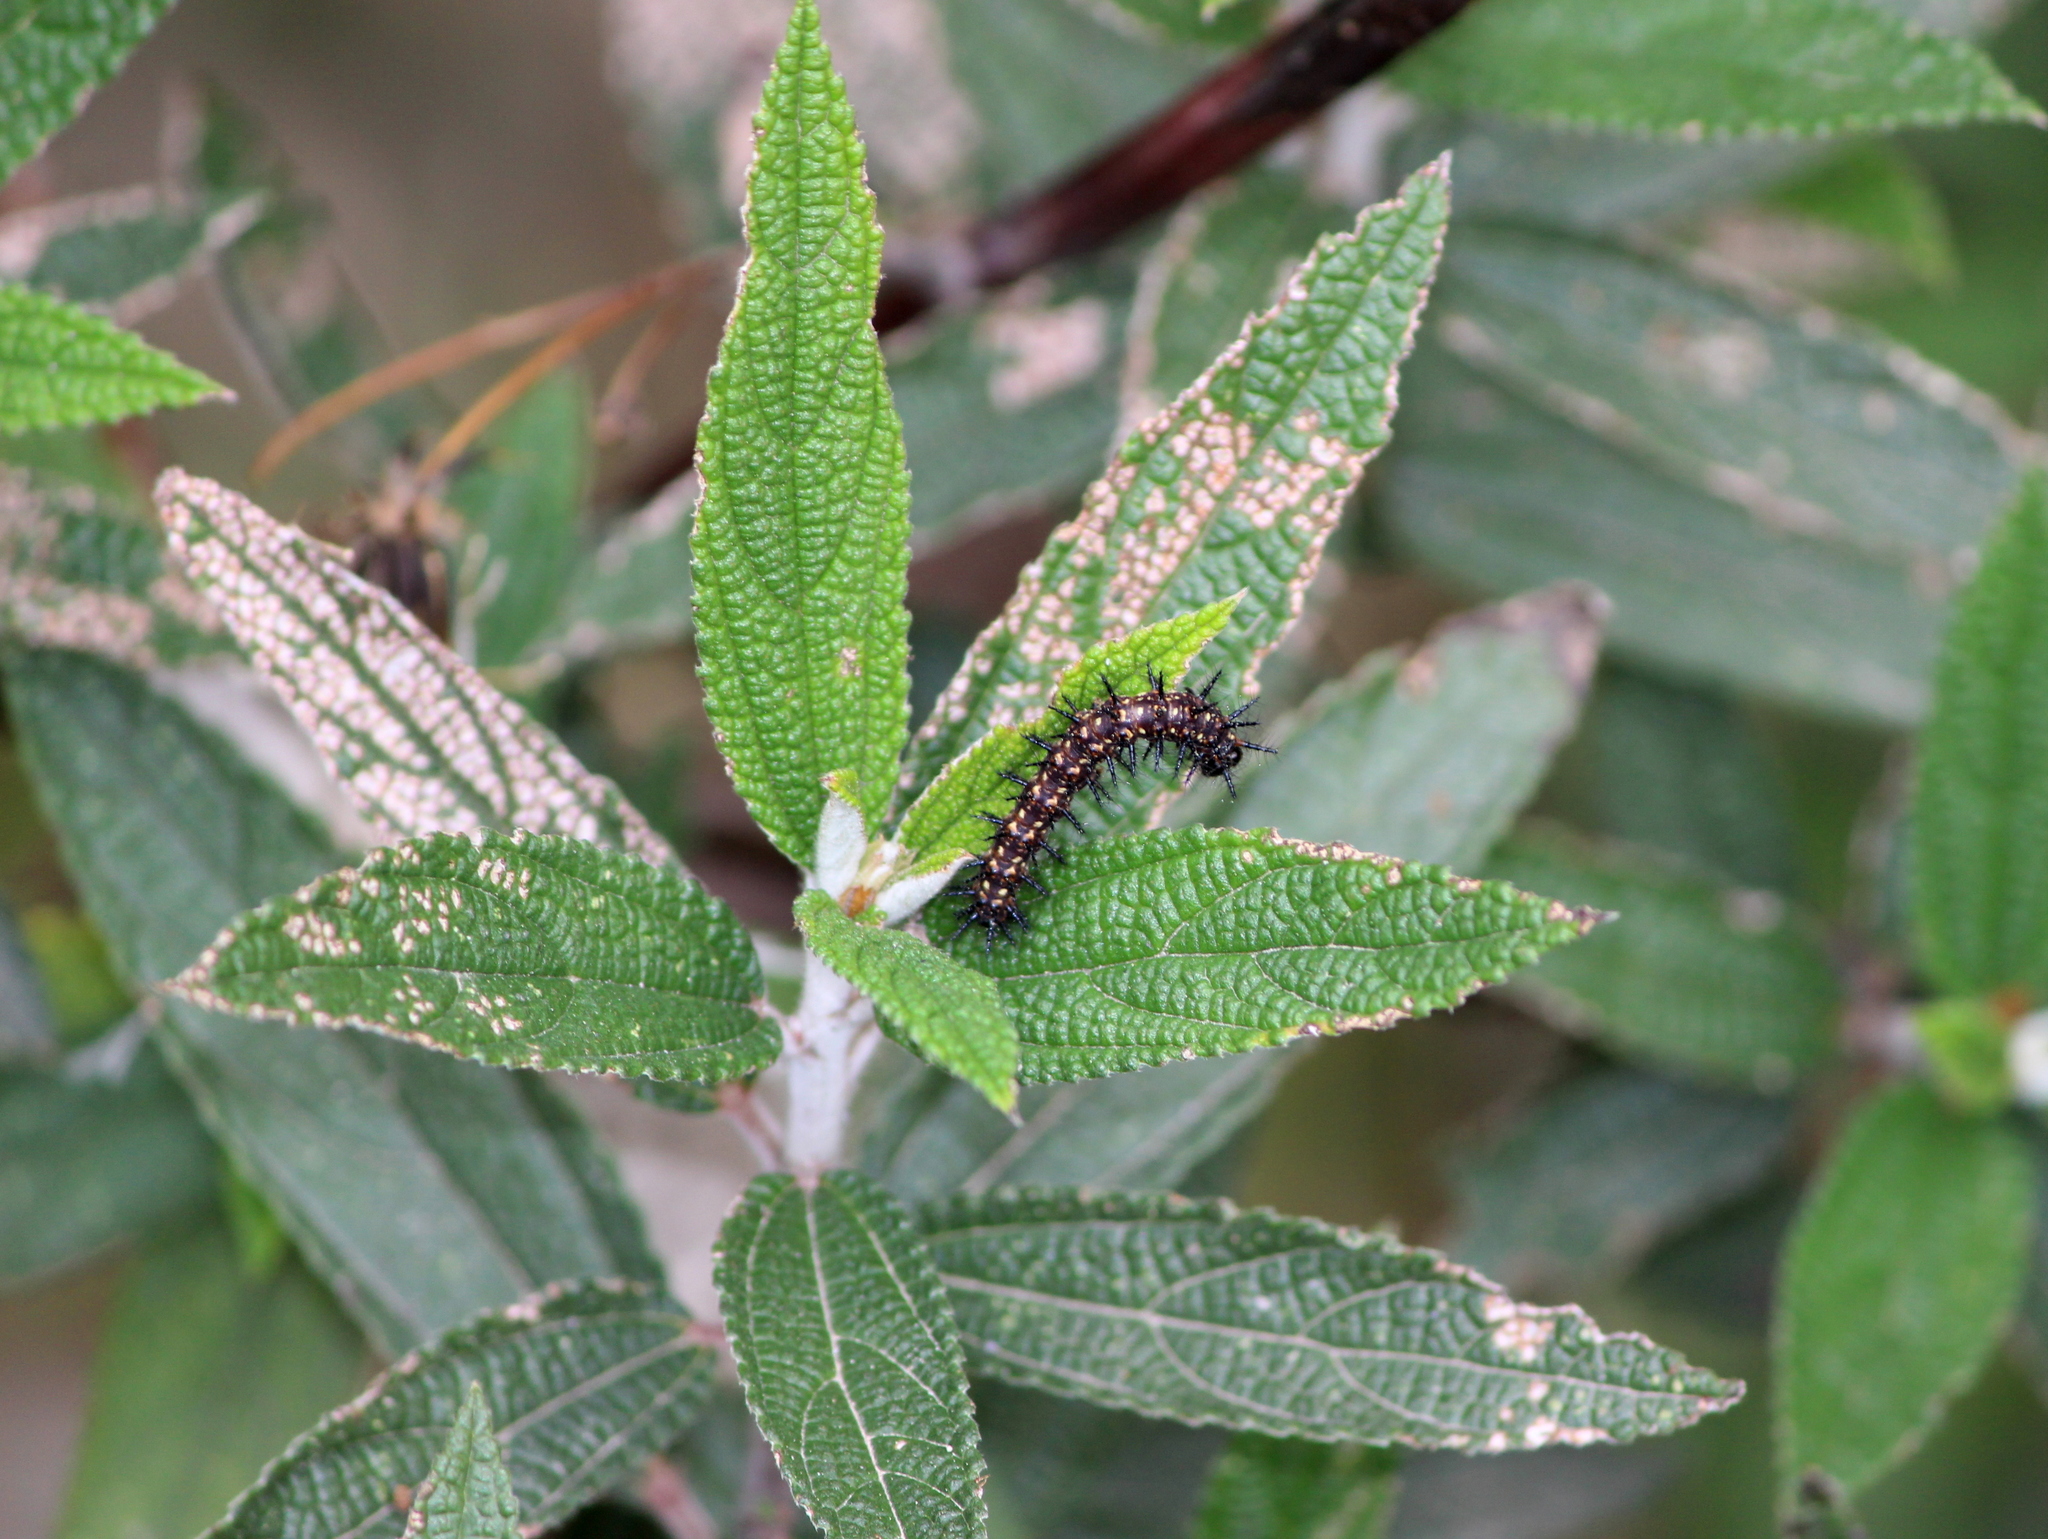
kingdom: Animalia
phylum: Arthropoda
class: Insecta
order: Lepidoptera
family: Nymphalidae
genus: Acraea
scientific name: Acraea Telchinia issoria
